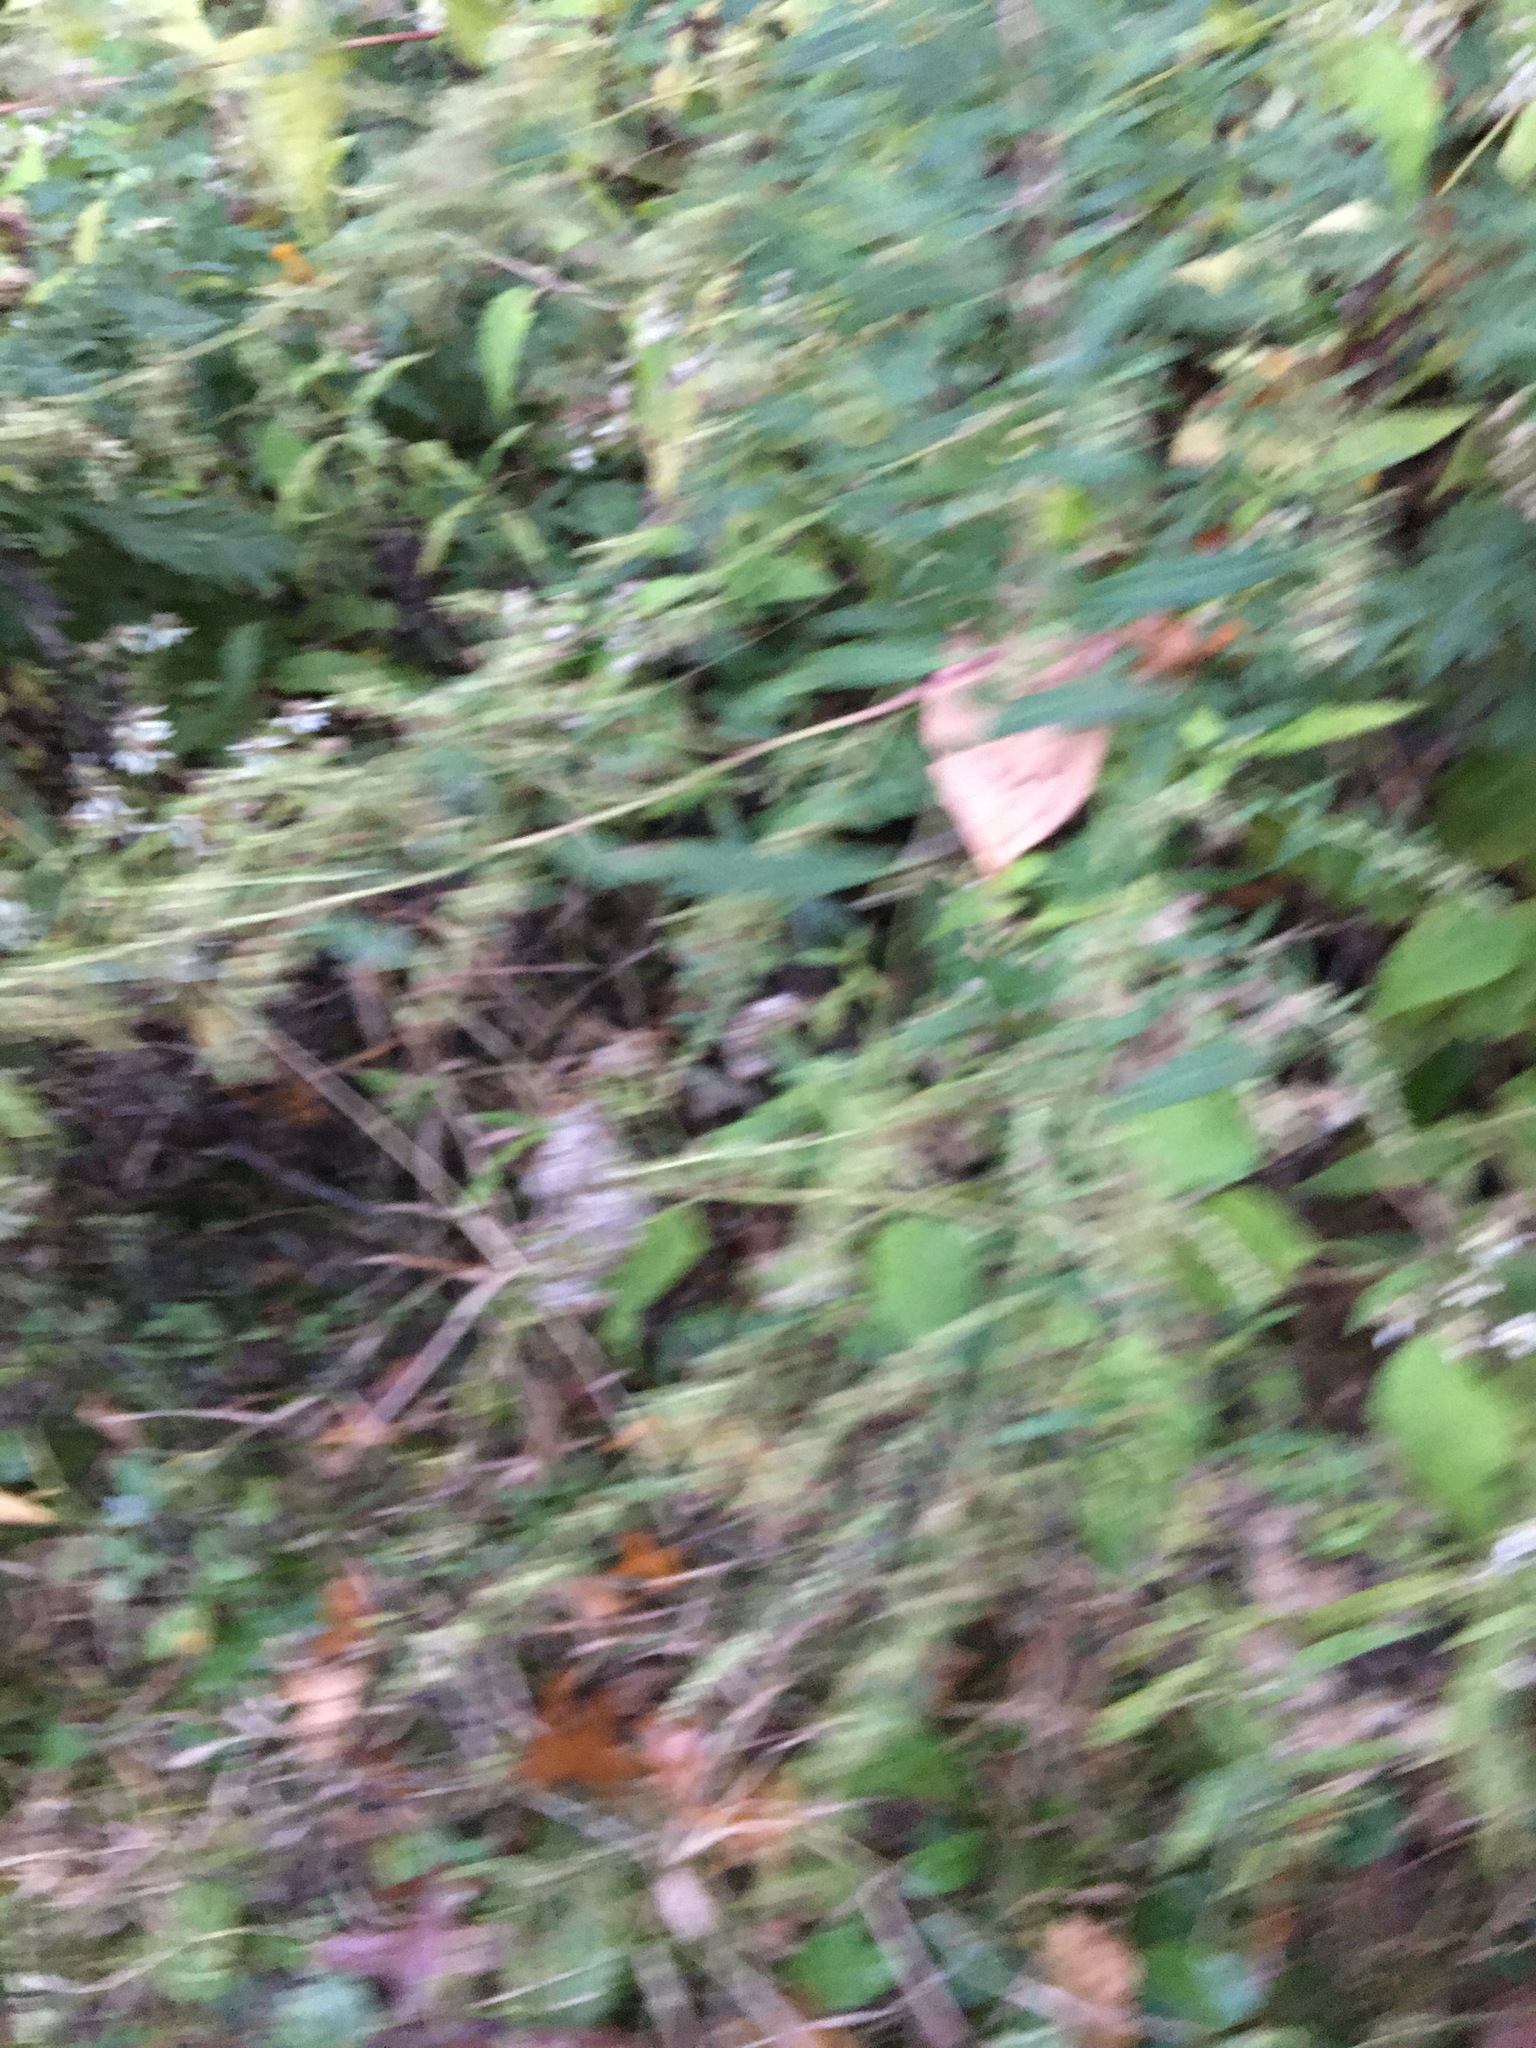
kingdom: Plantae
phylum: Tracheophyta
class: Magnoliopsida
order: Asterales
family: Asteraceae
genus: Artemisia
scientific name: Artemisia vulgaris
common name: Mugwort
